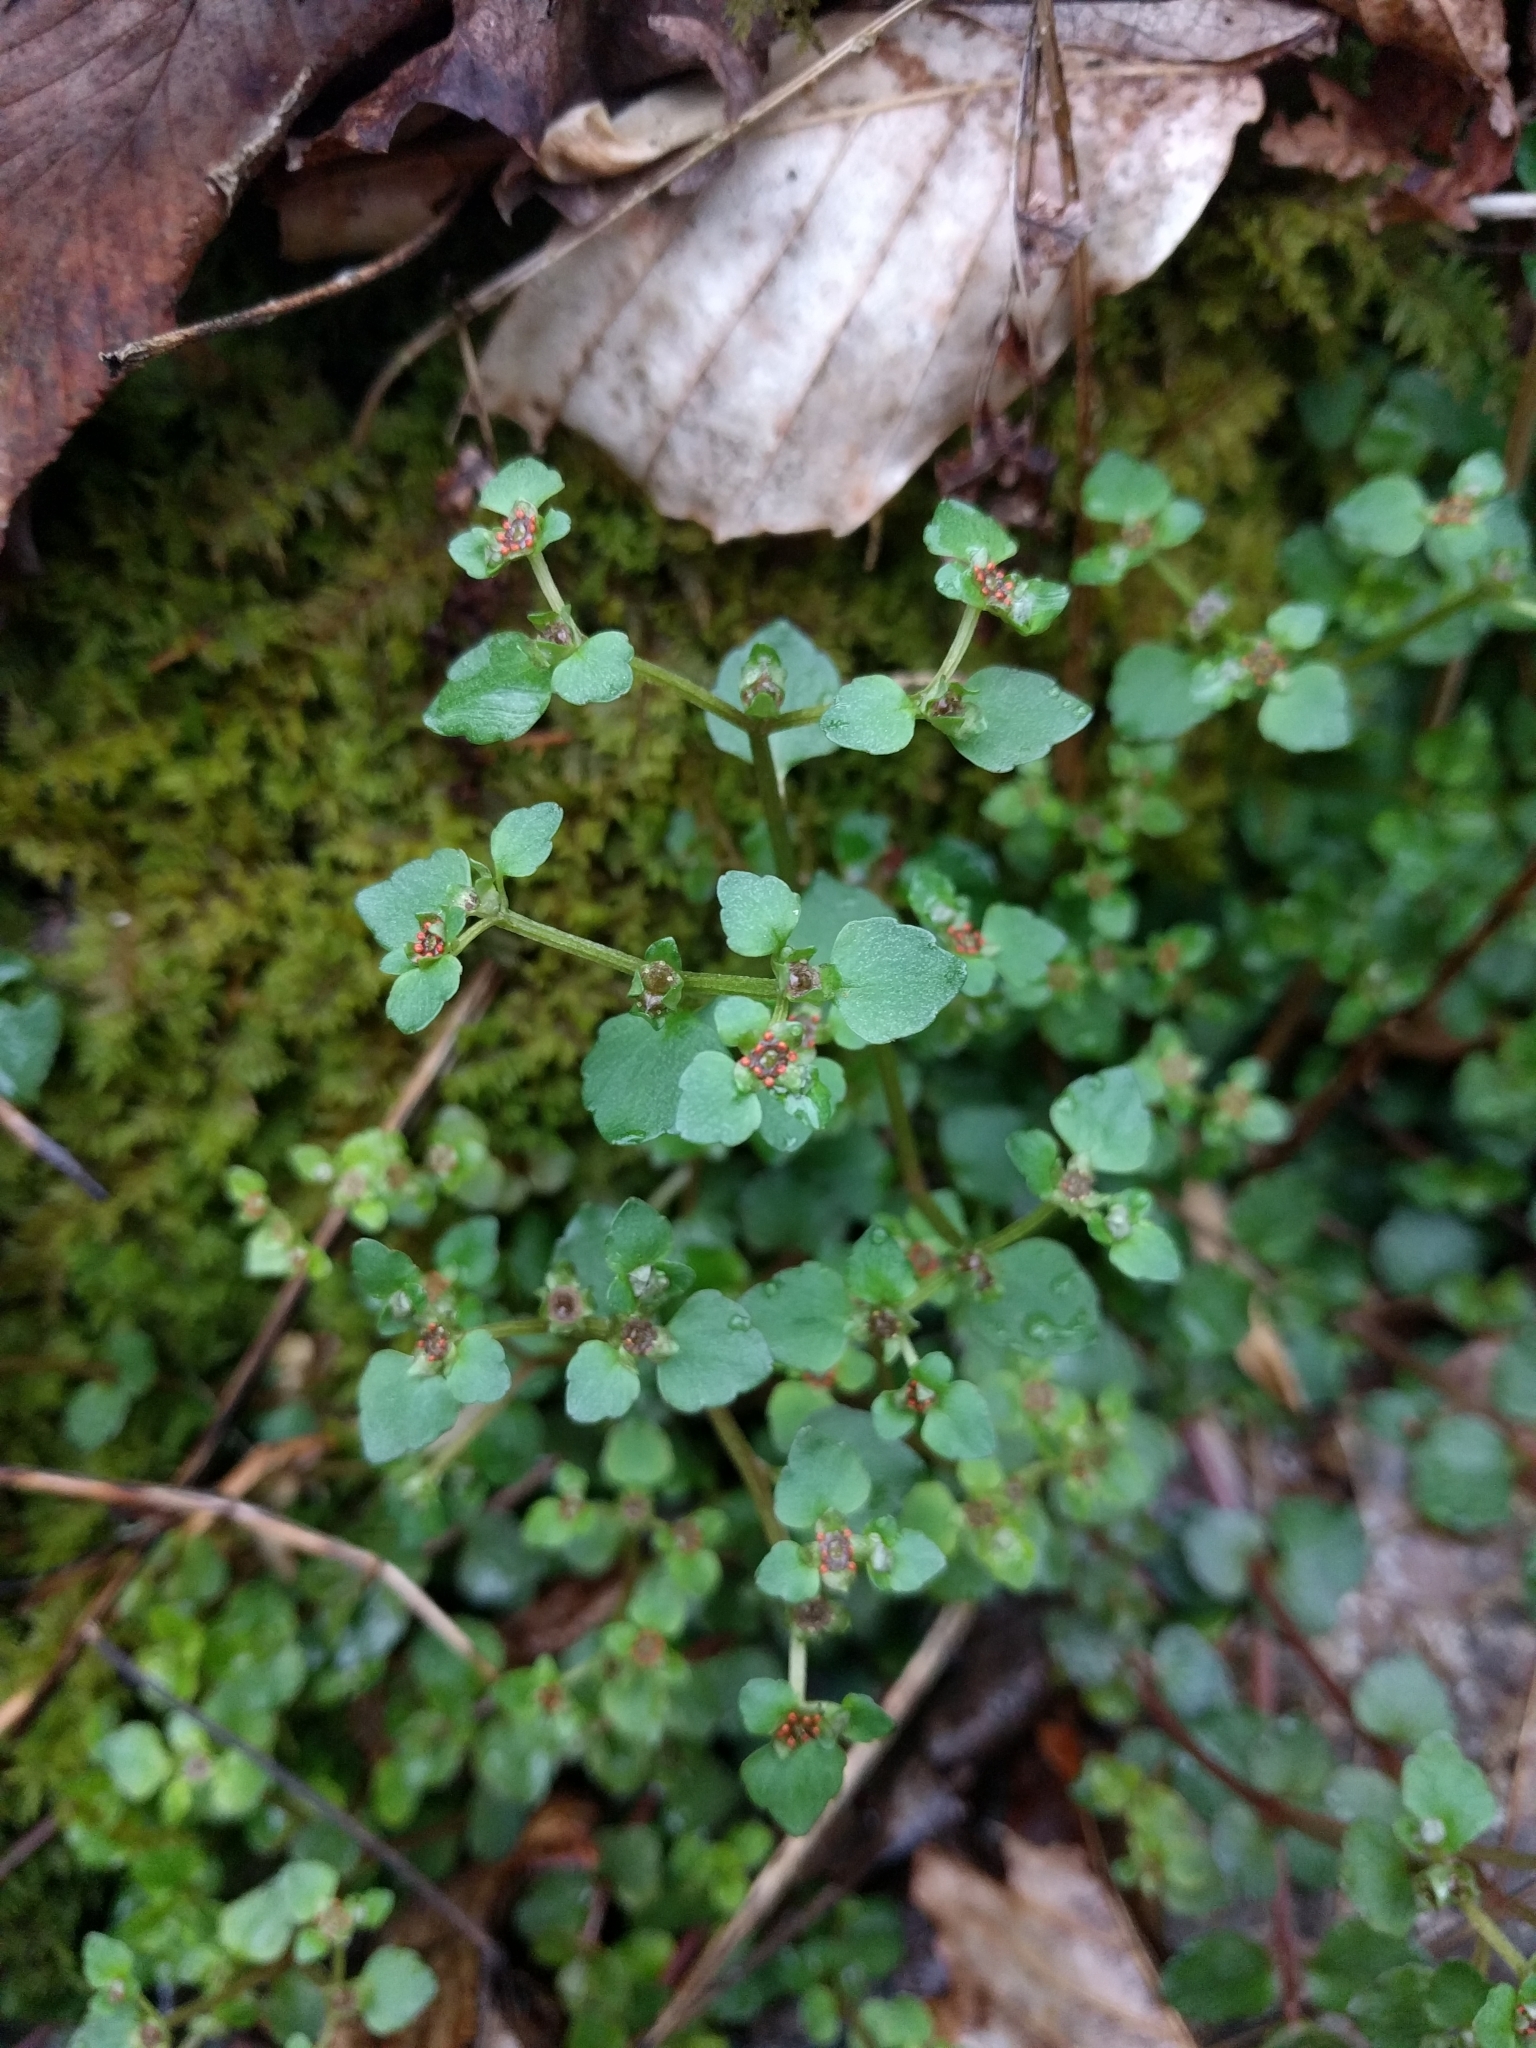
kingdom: Plantae
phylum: Tracheophyta
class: Magnoliopsida
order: Saxifragales
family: Saxifragaceae
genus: Chrysosplenium
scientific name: Chrysosplenium americanum
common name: American golden-saxifrage
